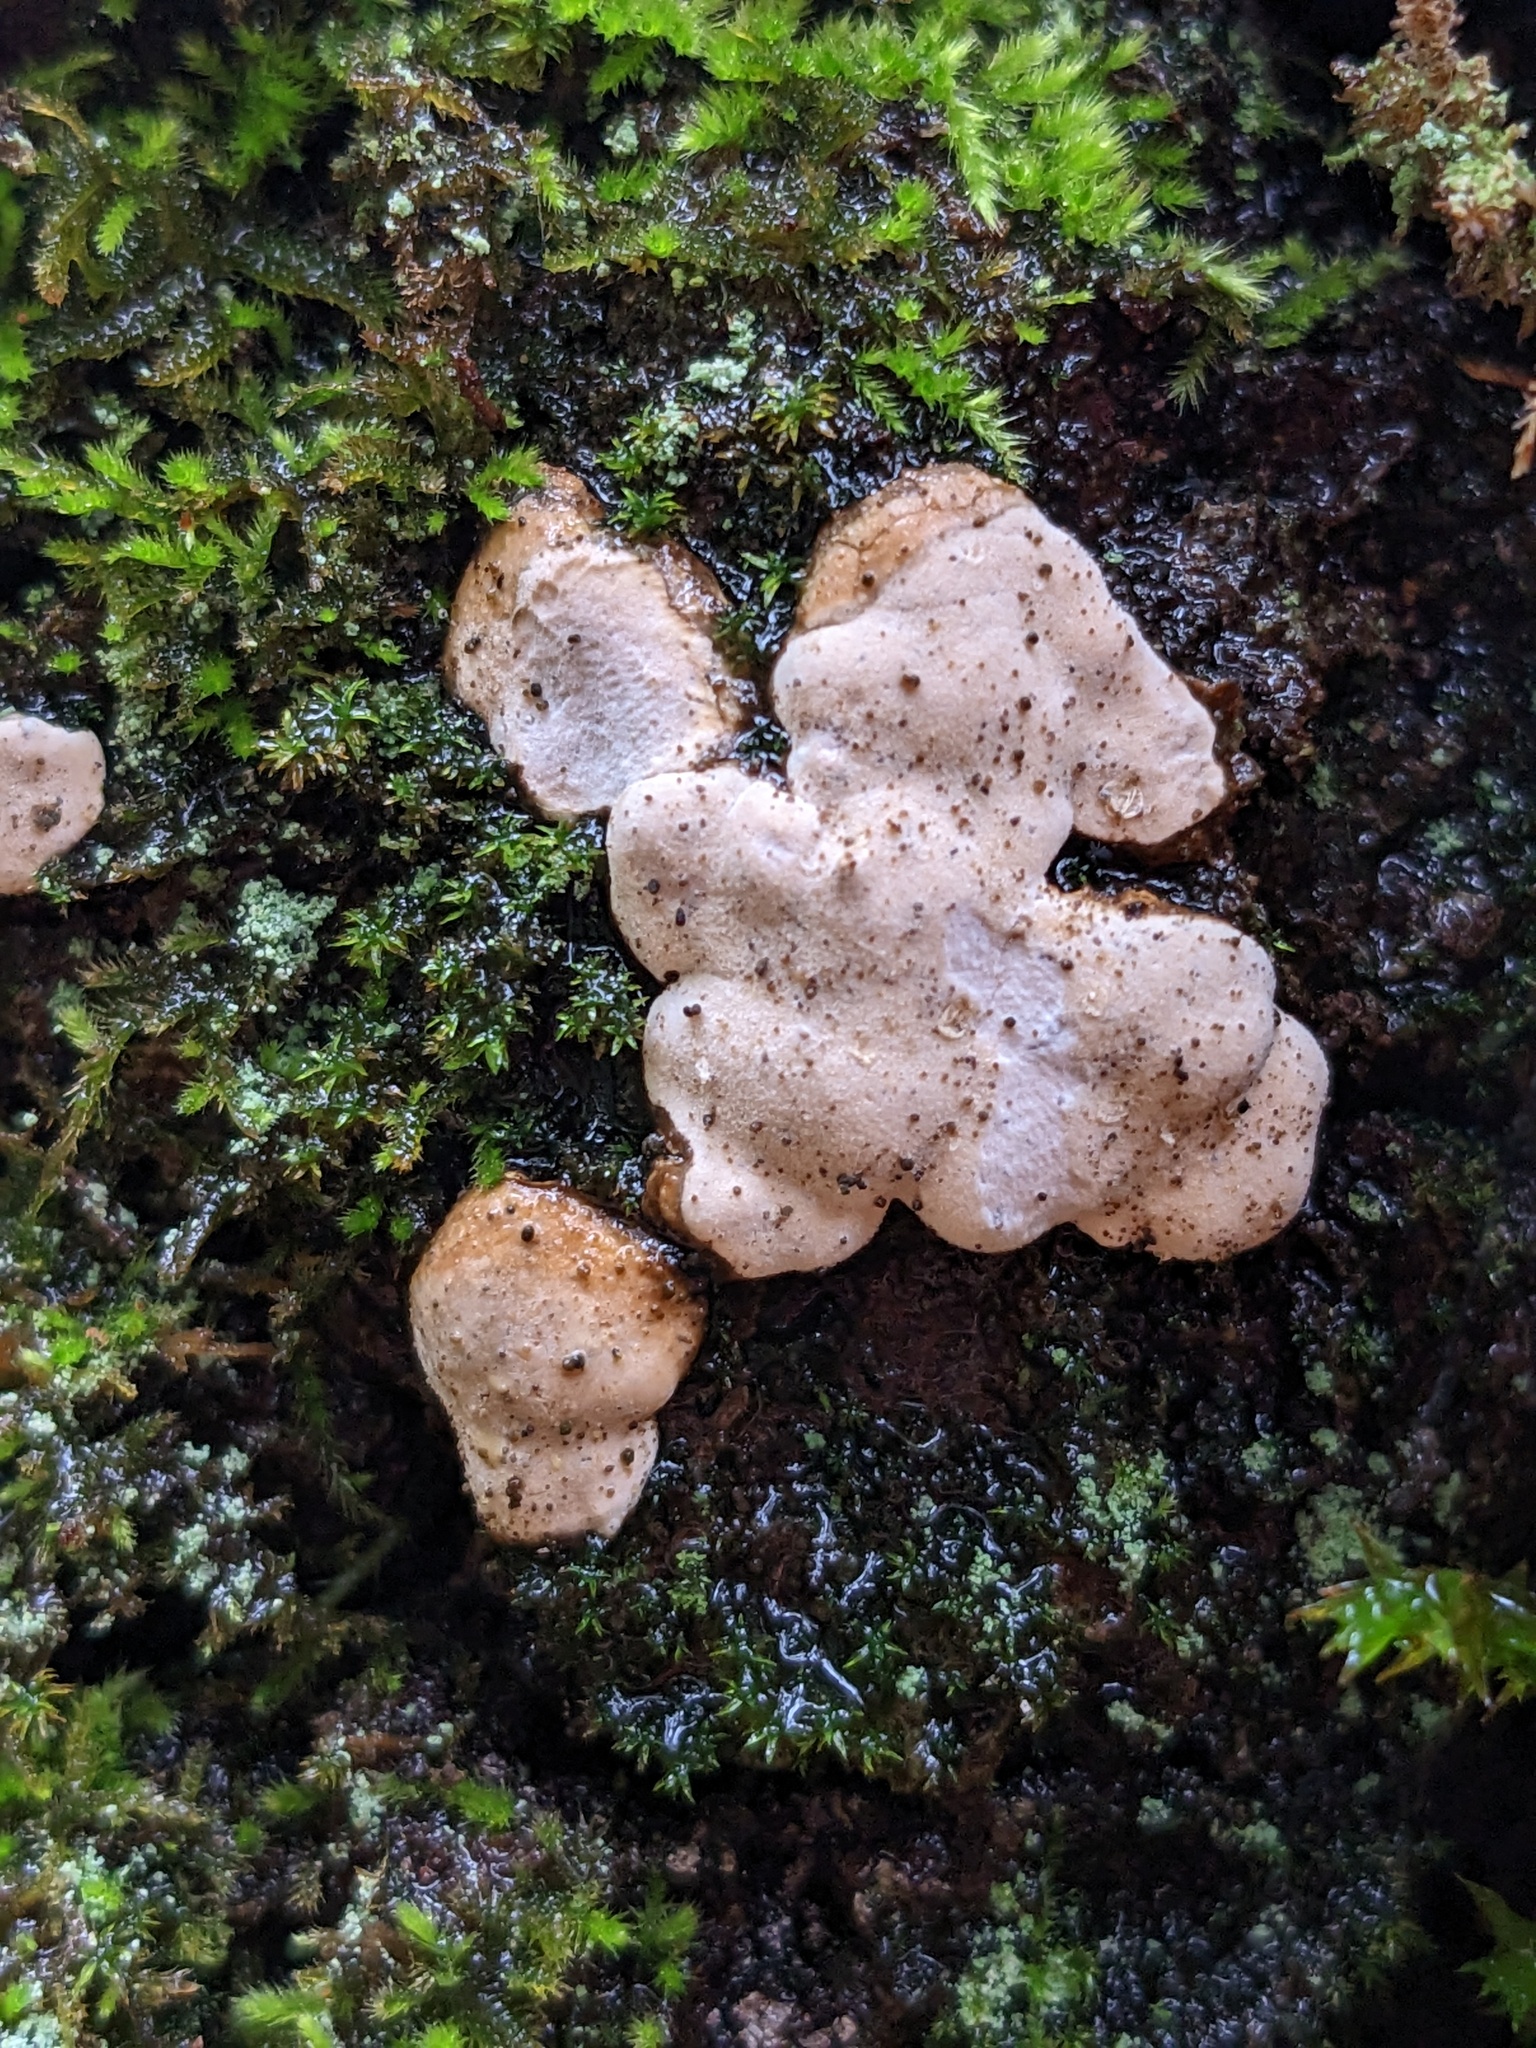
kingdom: Fungi
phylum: Basidiomycota
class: Agaricomycetes
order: Agaricales
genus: Dendrothele
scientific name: Dendrothele candida
